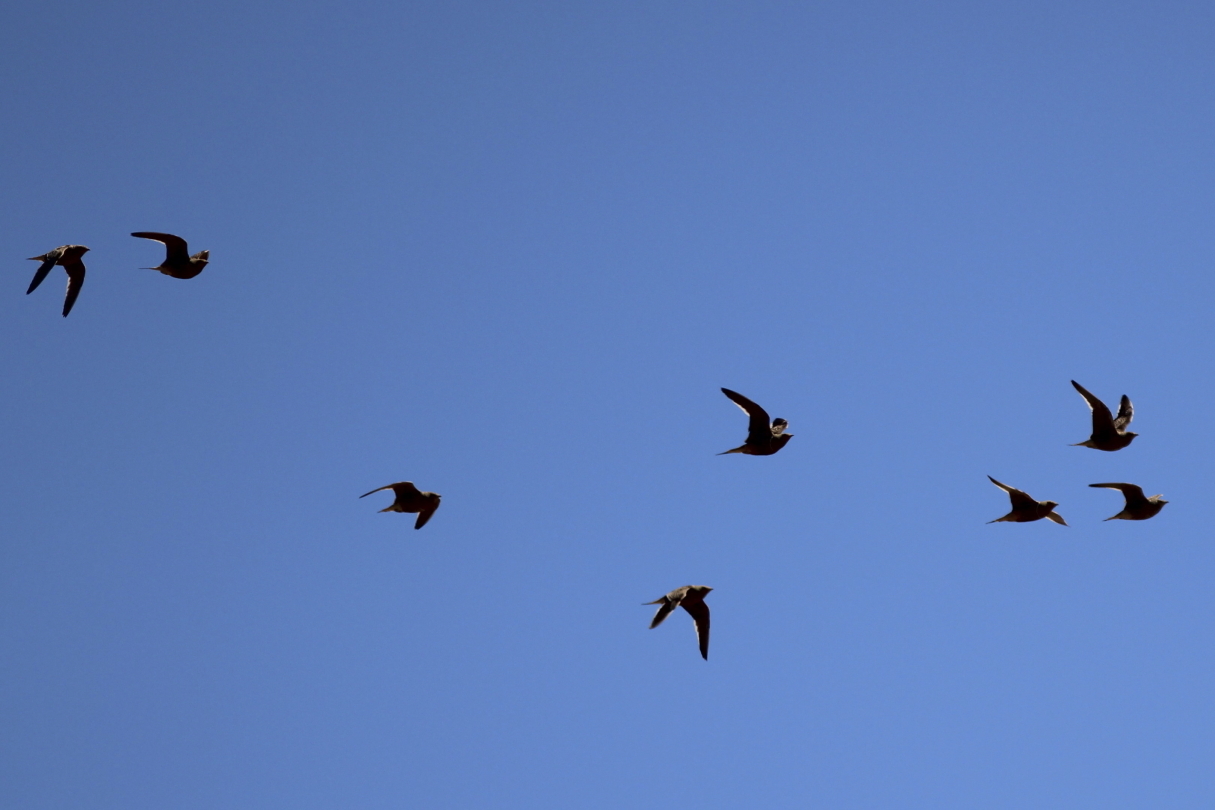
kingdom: Animalia
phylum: Chordata
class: Aves
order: Pteroclidiformes
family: Pteroclididae
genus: Pterocles
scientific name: Pterocles namaqua
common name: Namaqua sandgrouse
